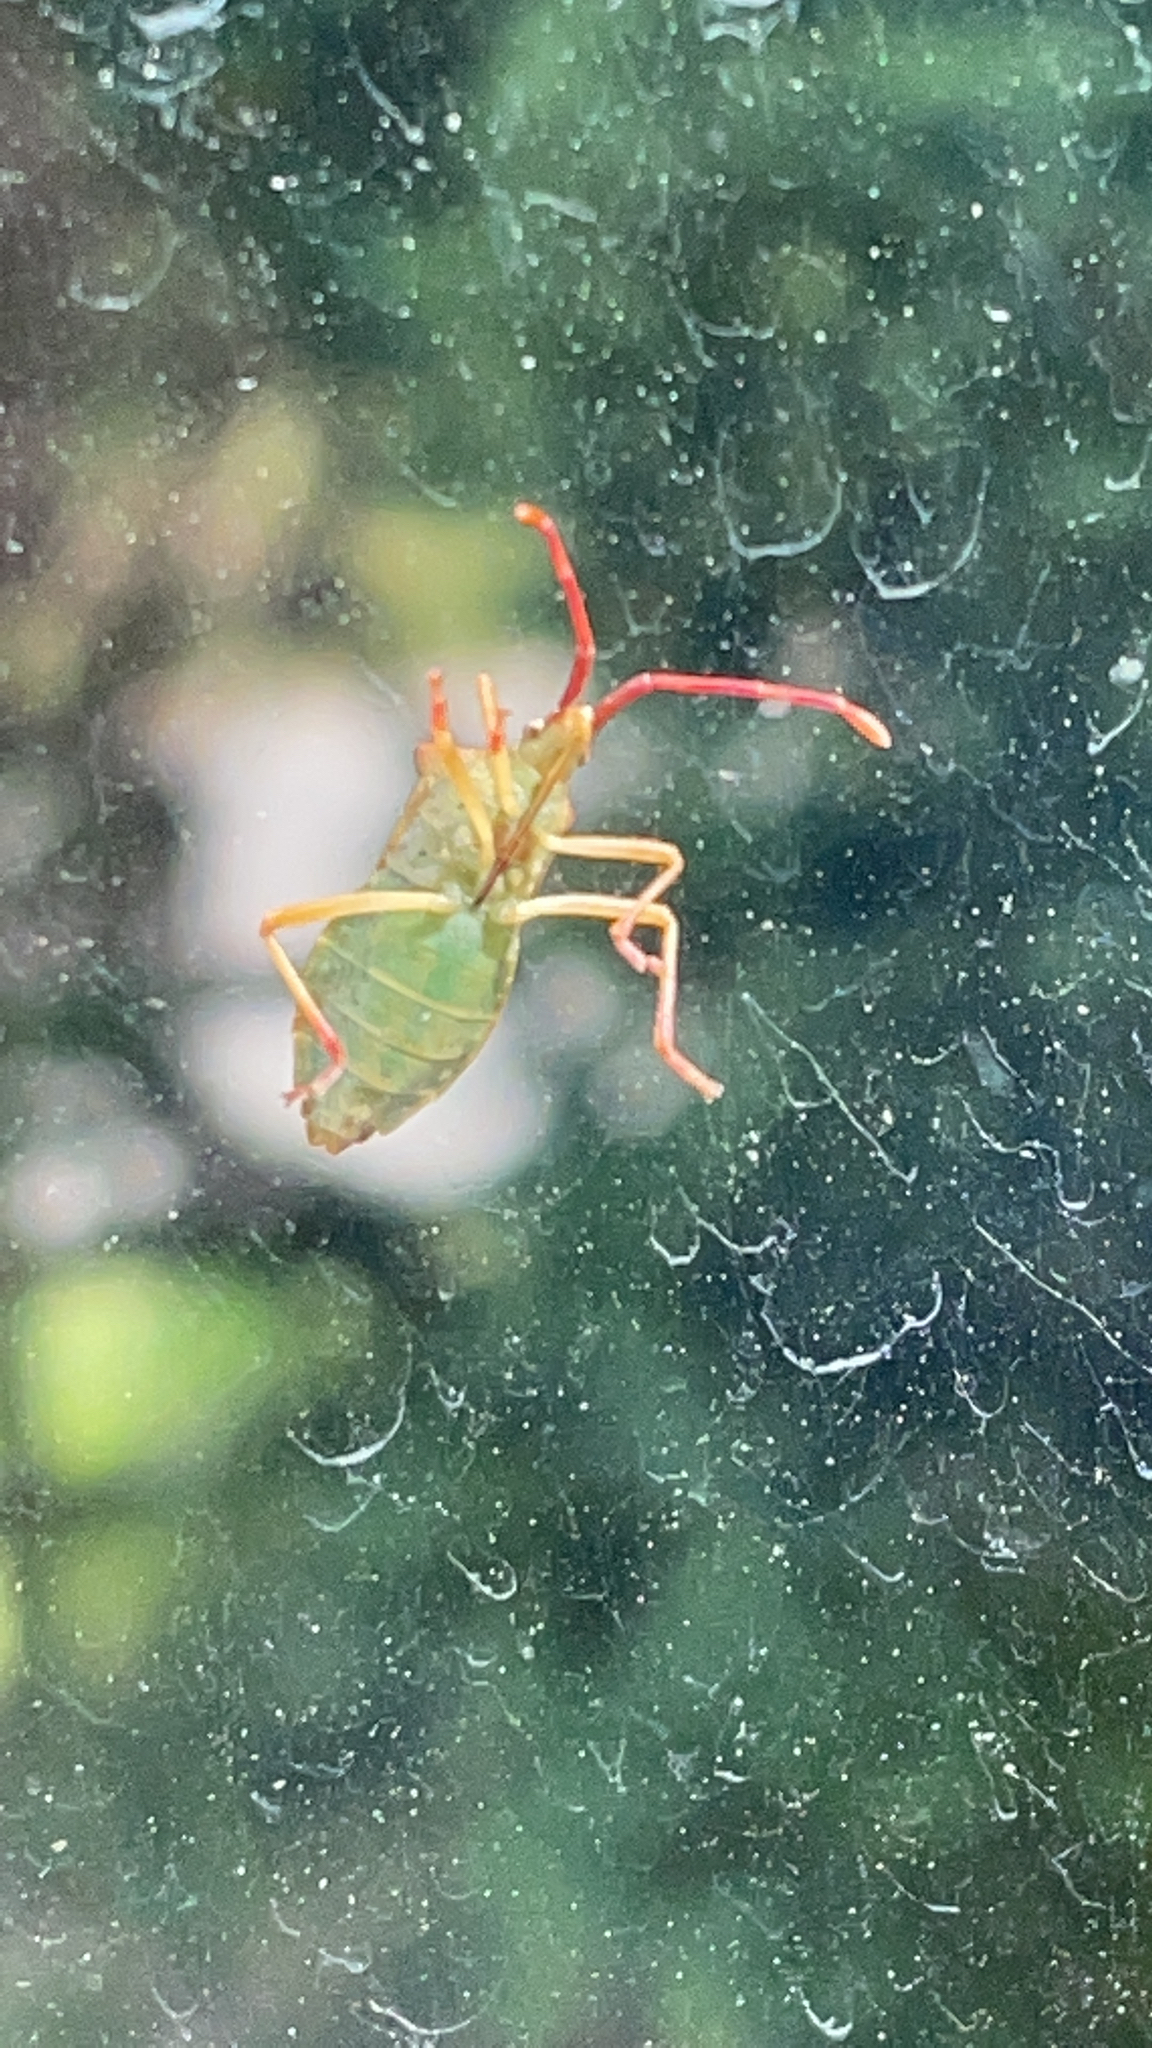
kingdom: Animalia
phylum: Arthropoda
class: Insecta
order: Hemiptera
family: Coreidae
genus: Gonocerus
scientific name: Gonocerus acuteangulatus
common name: Box bug
